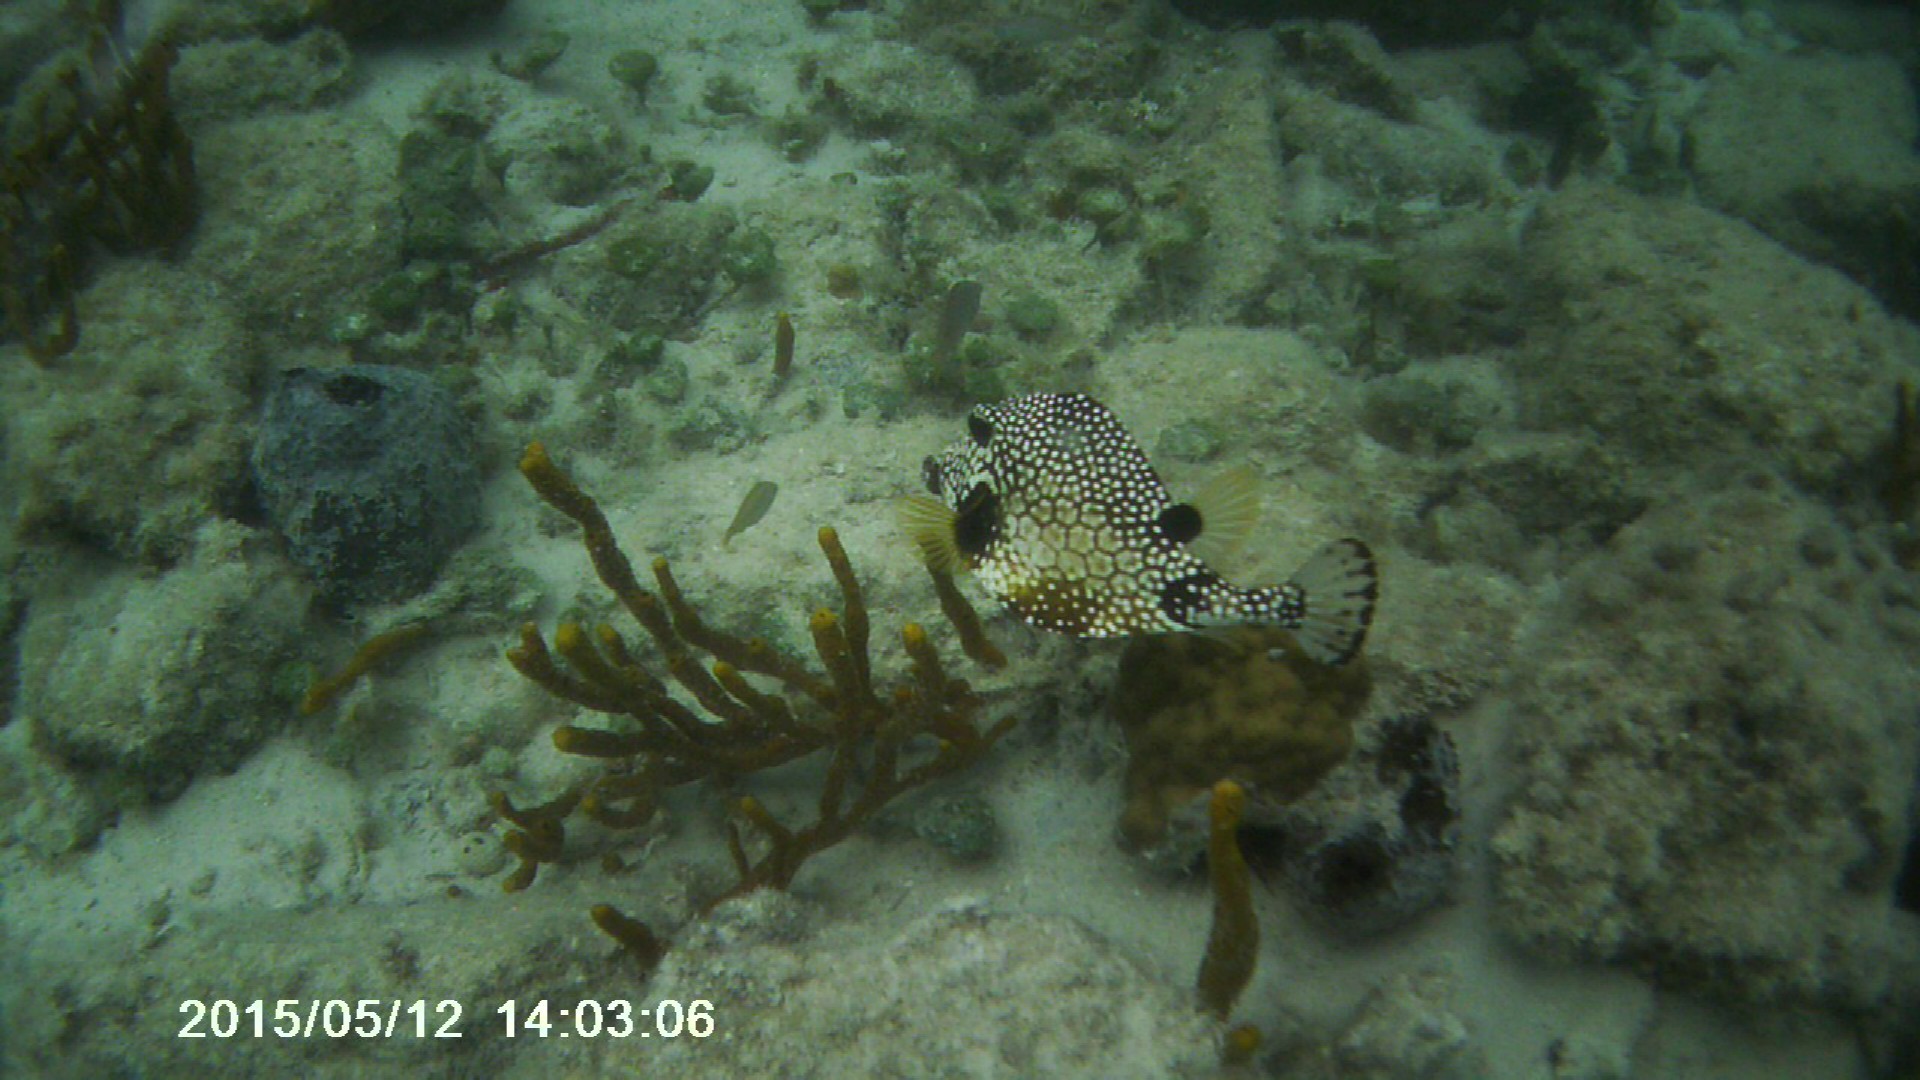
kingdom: Animalia
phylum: Chordata
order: Tetraodontiformes
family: Ostraciidae
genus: Lactophrys
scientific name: Lactophrys triqueter
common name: Smooth trunkfish
